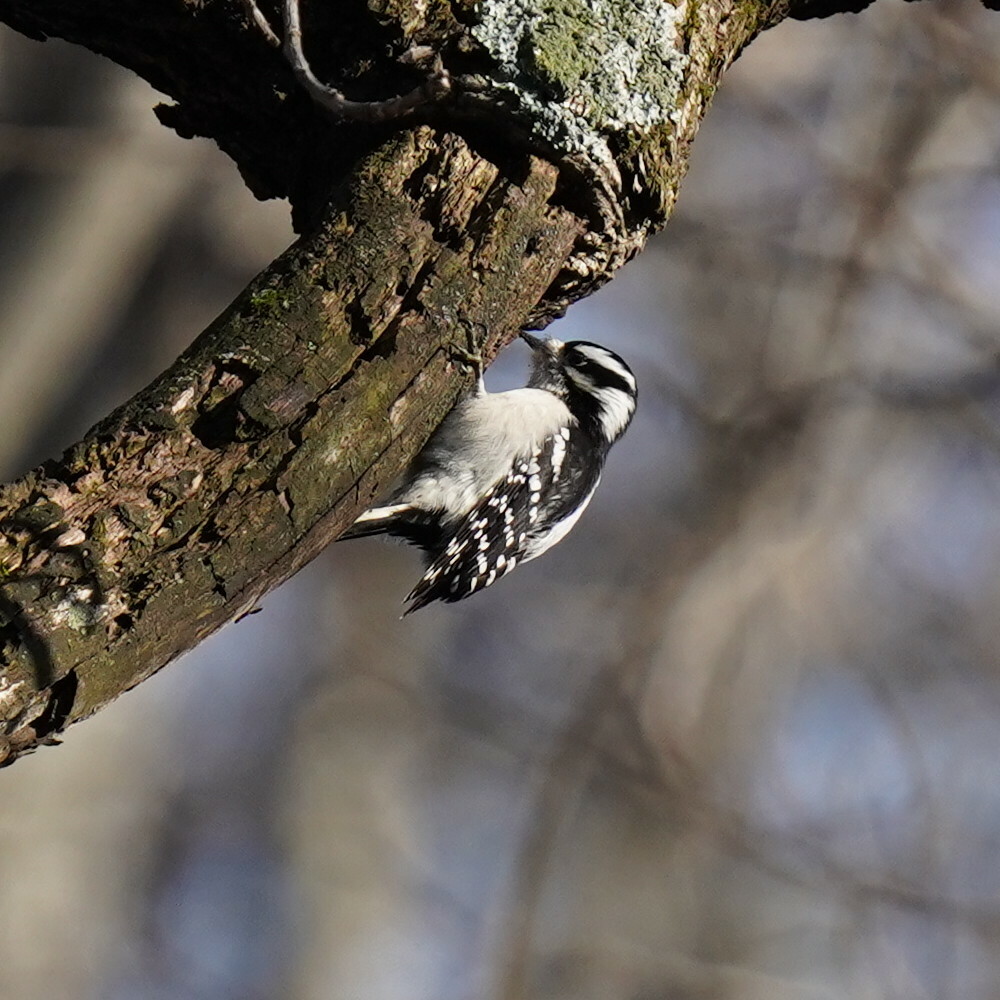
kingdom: Animalia
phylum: Chordata
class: Aves
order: Piciformes
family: Picidae
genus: Dryobates
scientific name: Dryobates pubescens
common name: Downy woodpecker
